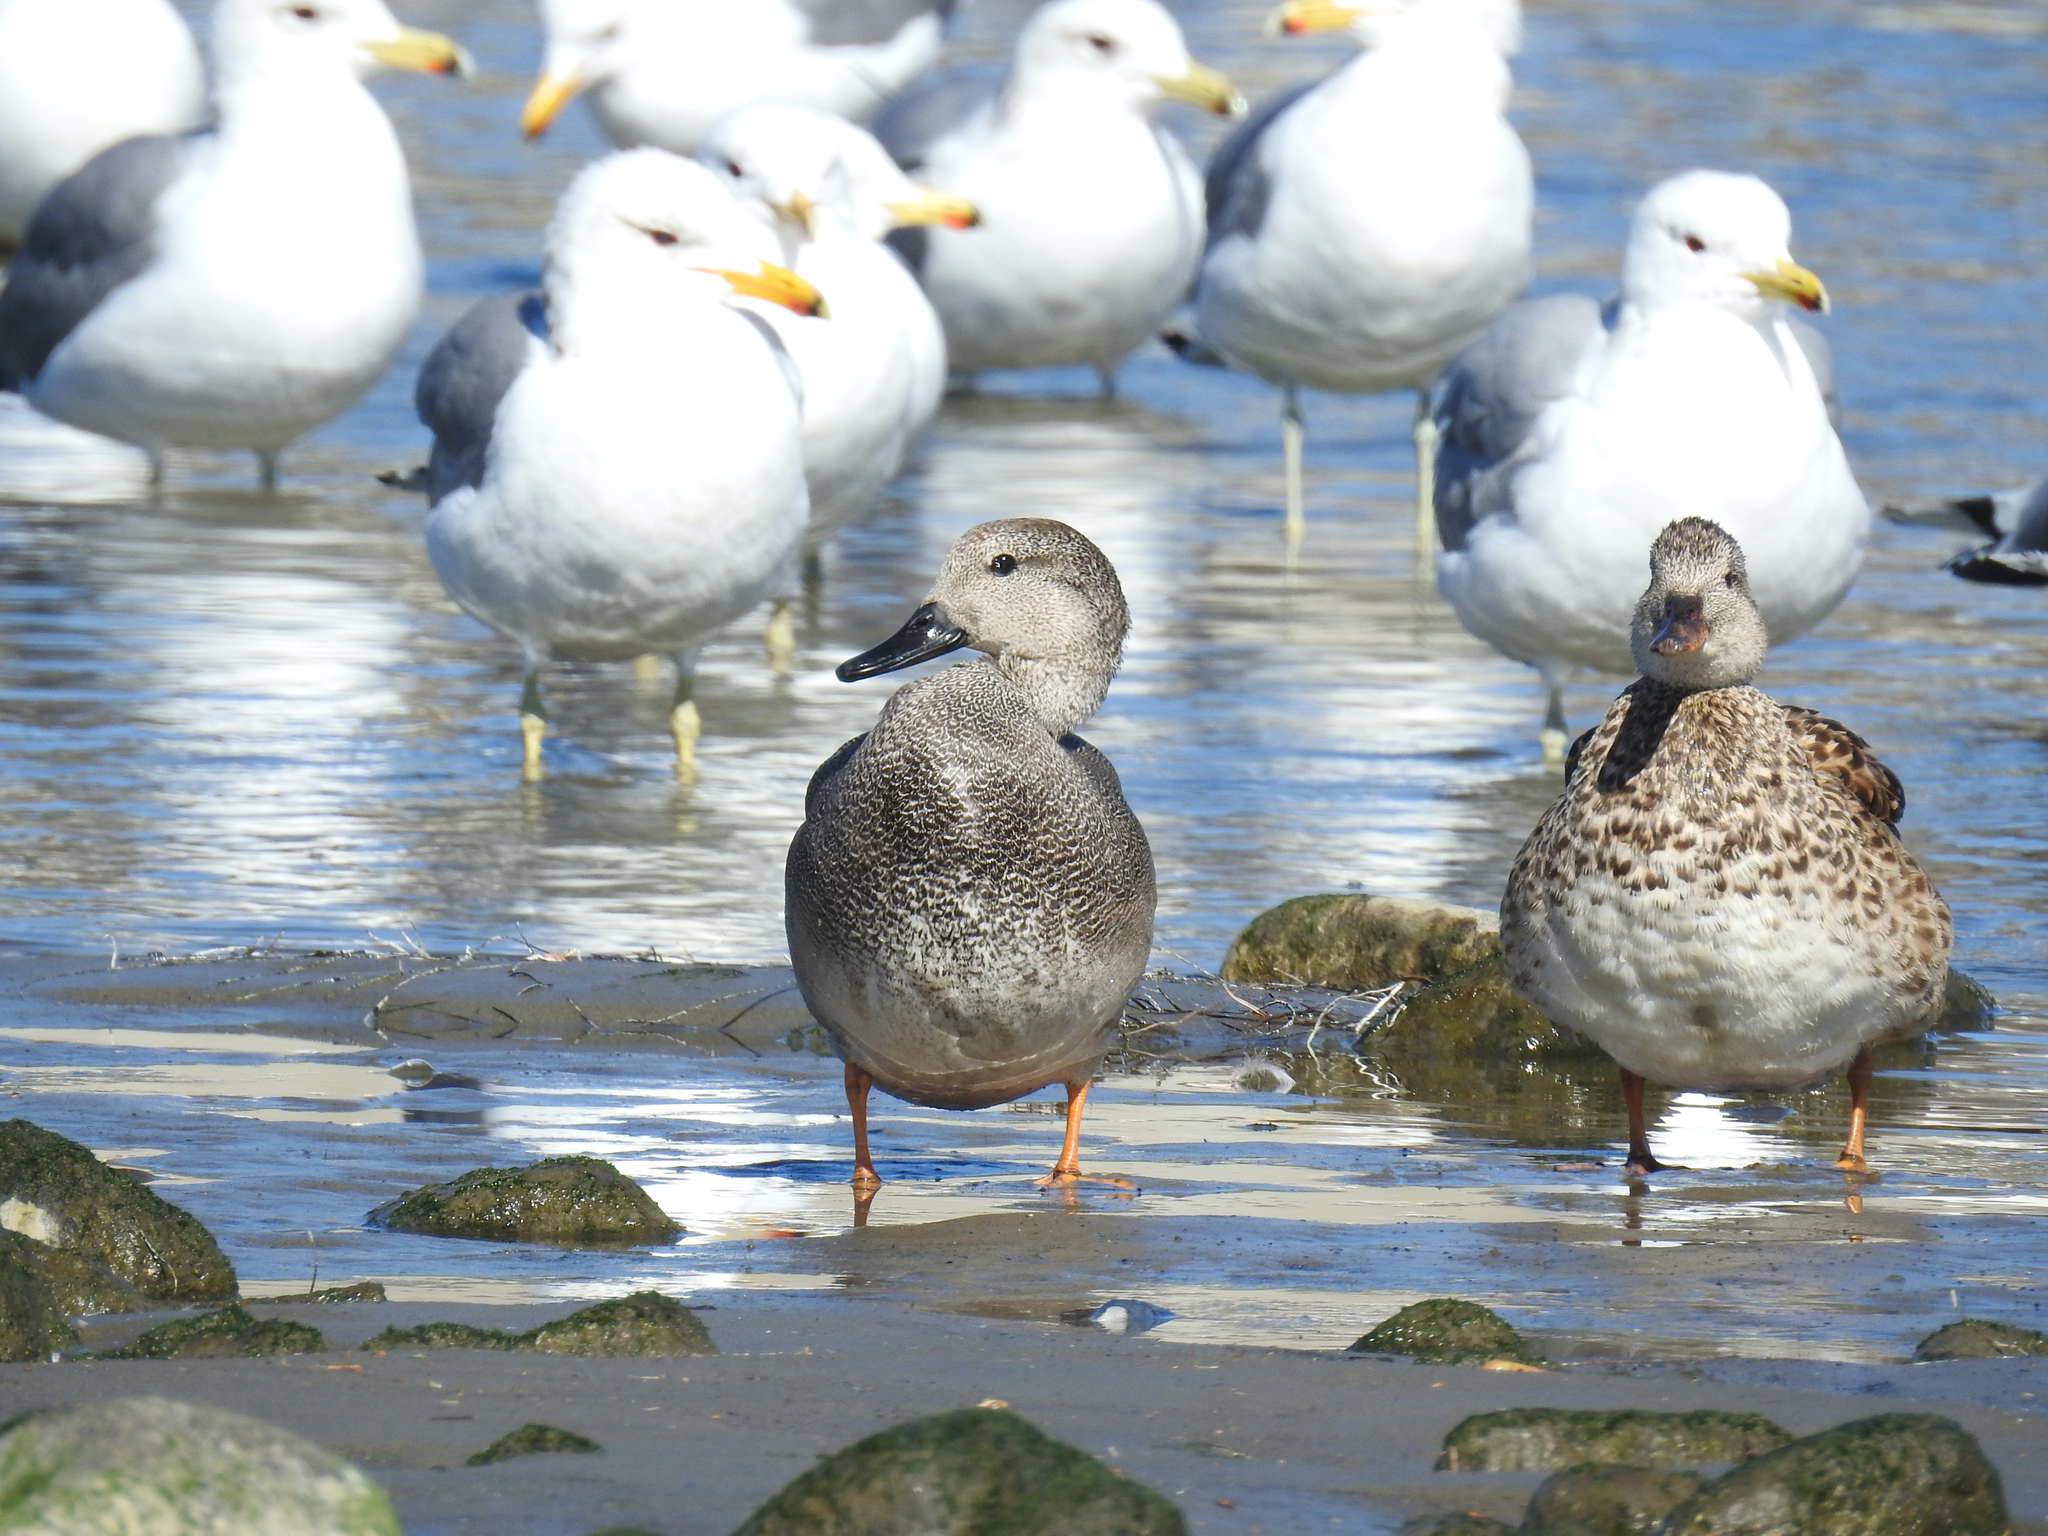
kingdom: Animalia
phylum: Chordata
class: Aves
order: Anseriformes
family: Anatidae
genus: Mareca
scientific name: Mareca strepera
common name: Gadwall
